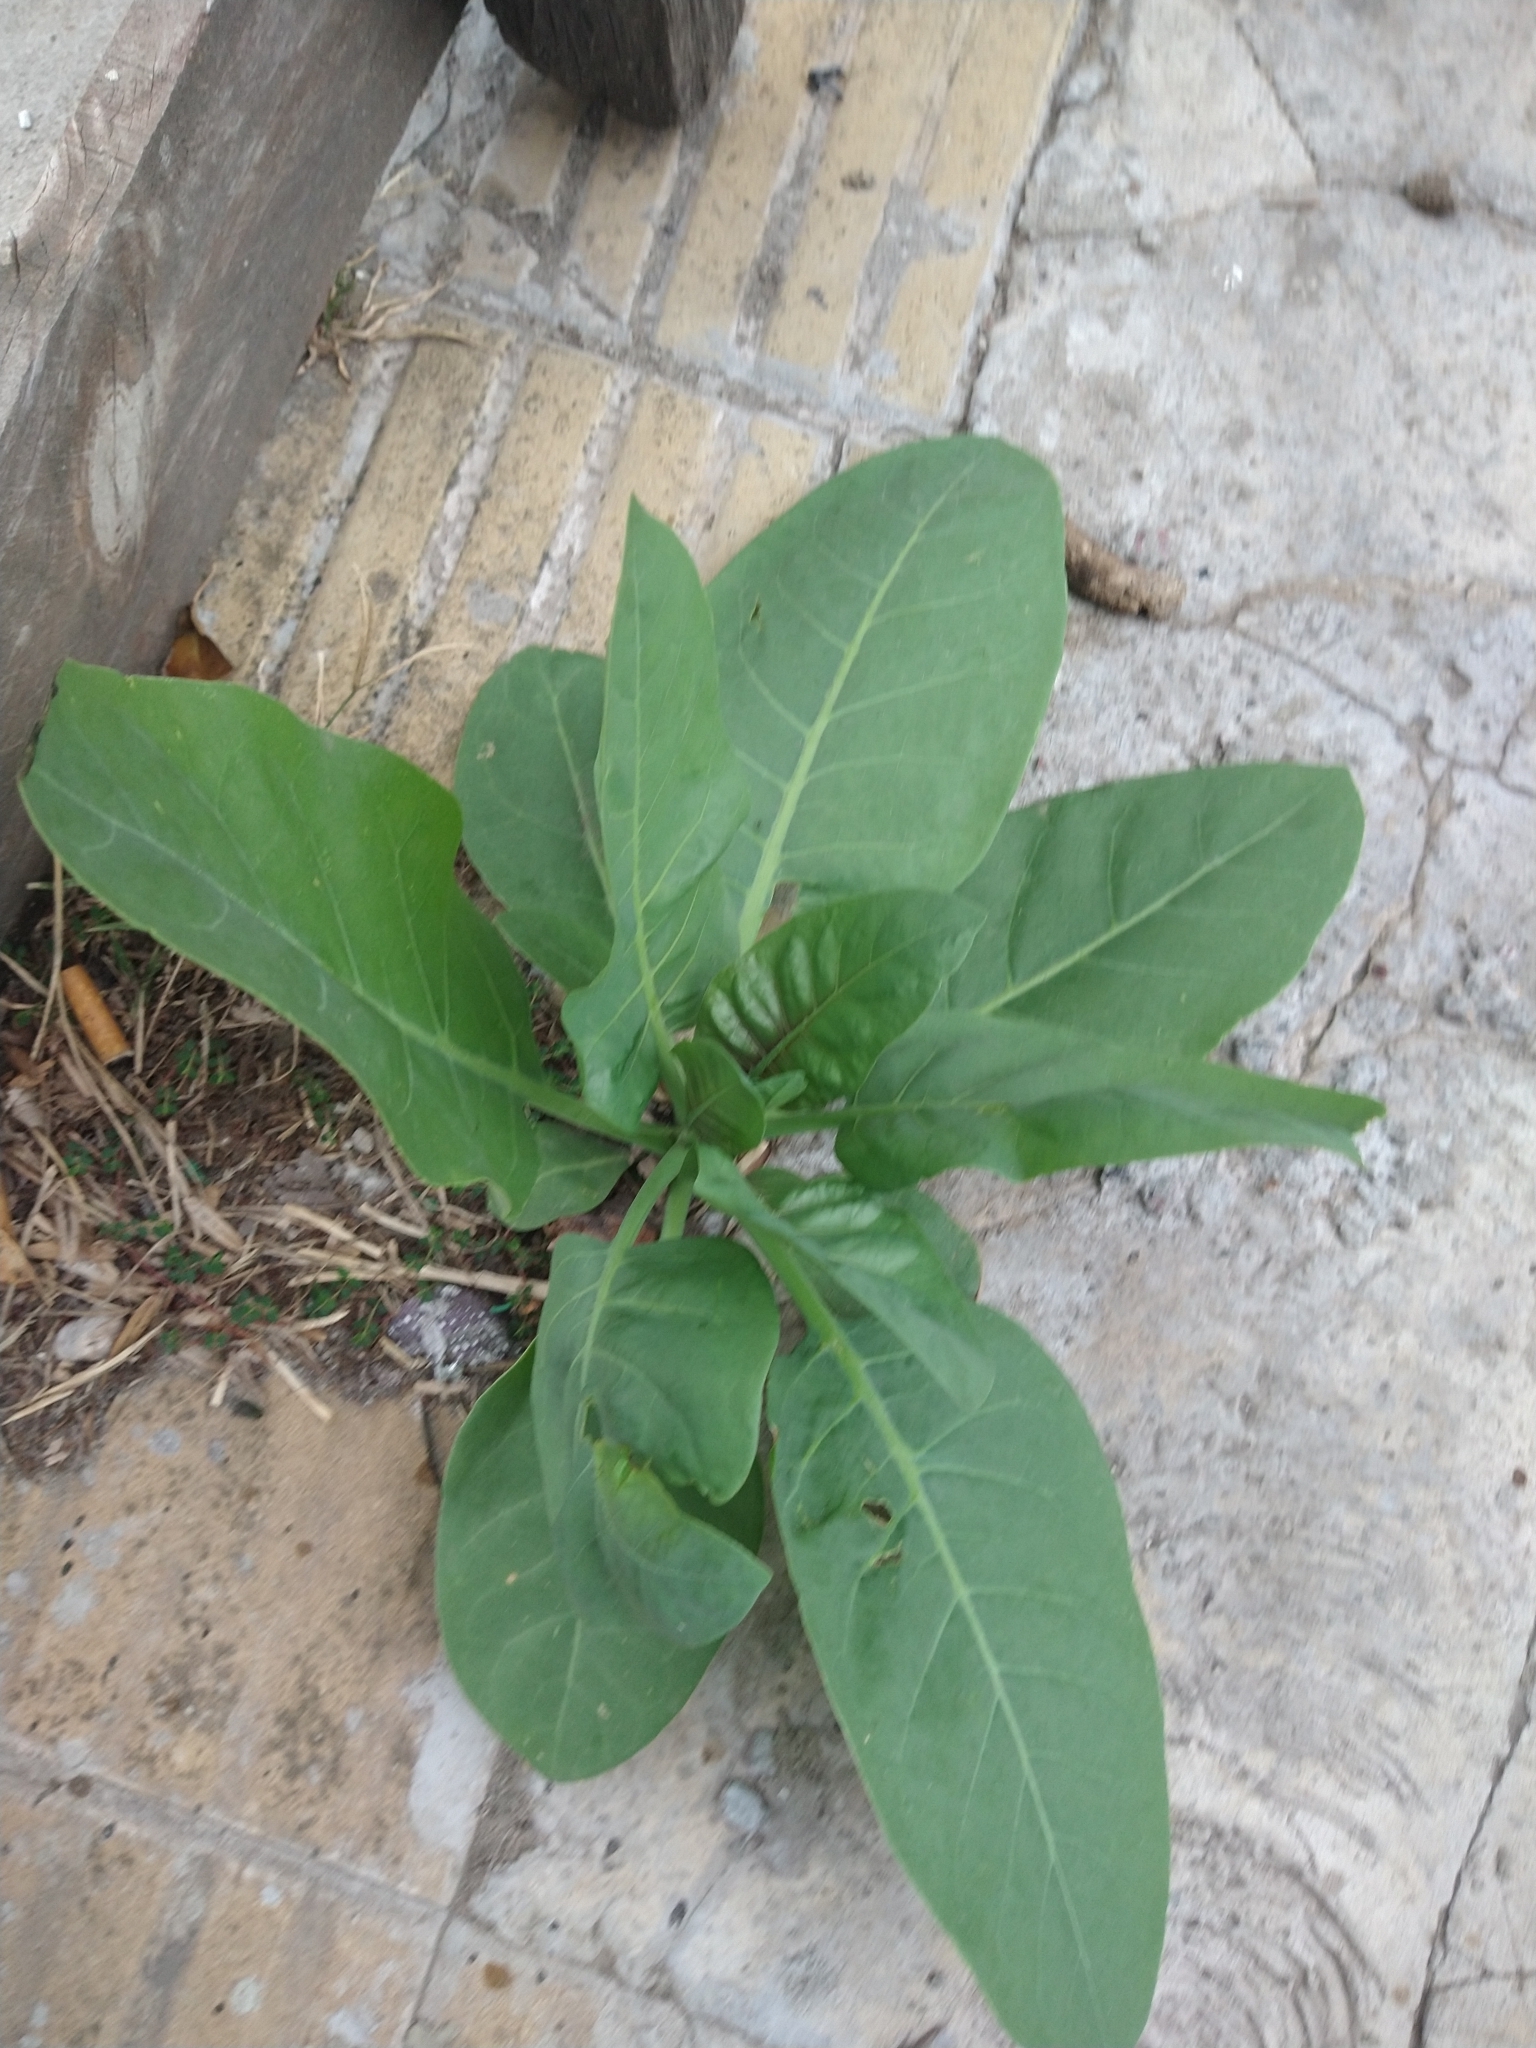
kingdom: Plantae
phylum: Tracheophyta
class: Magnoliopsida
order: Solanales
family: Solanaceae
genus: Nicotiana
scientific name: Nicotiana glauca
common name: Tree tobacco
